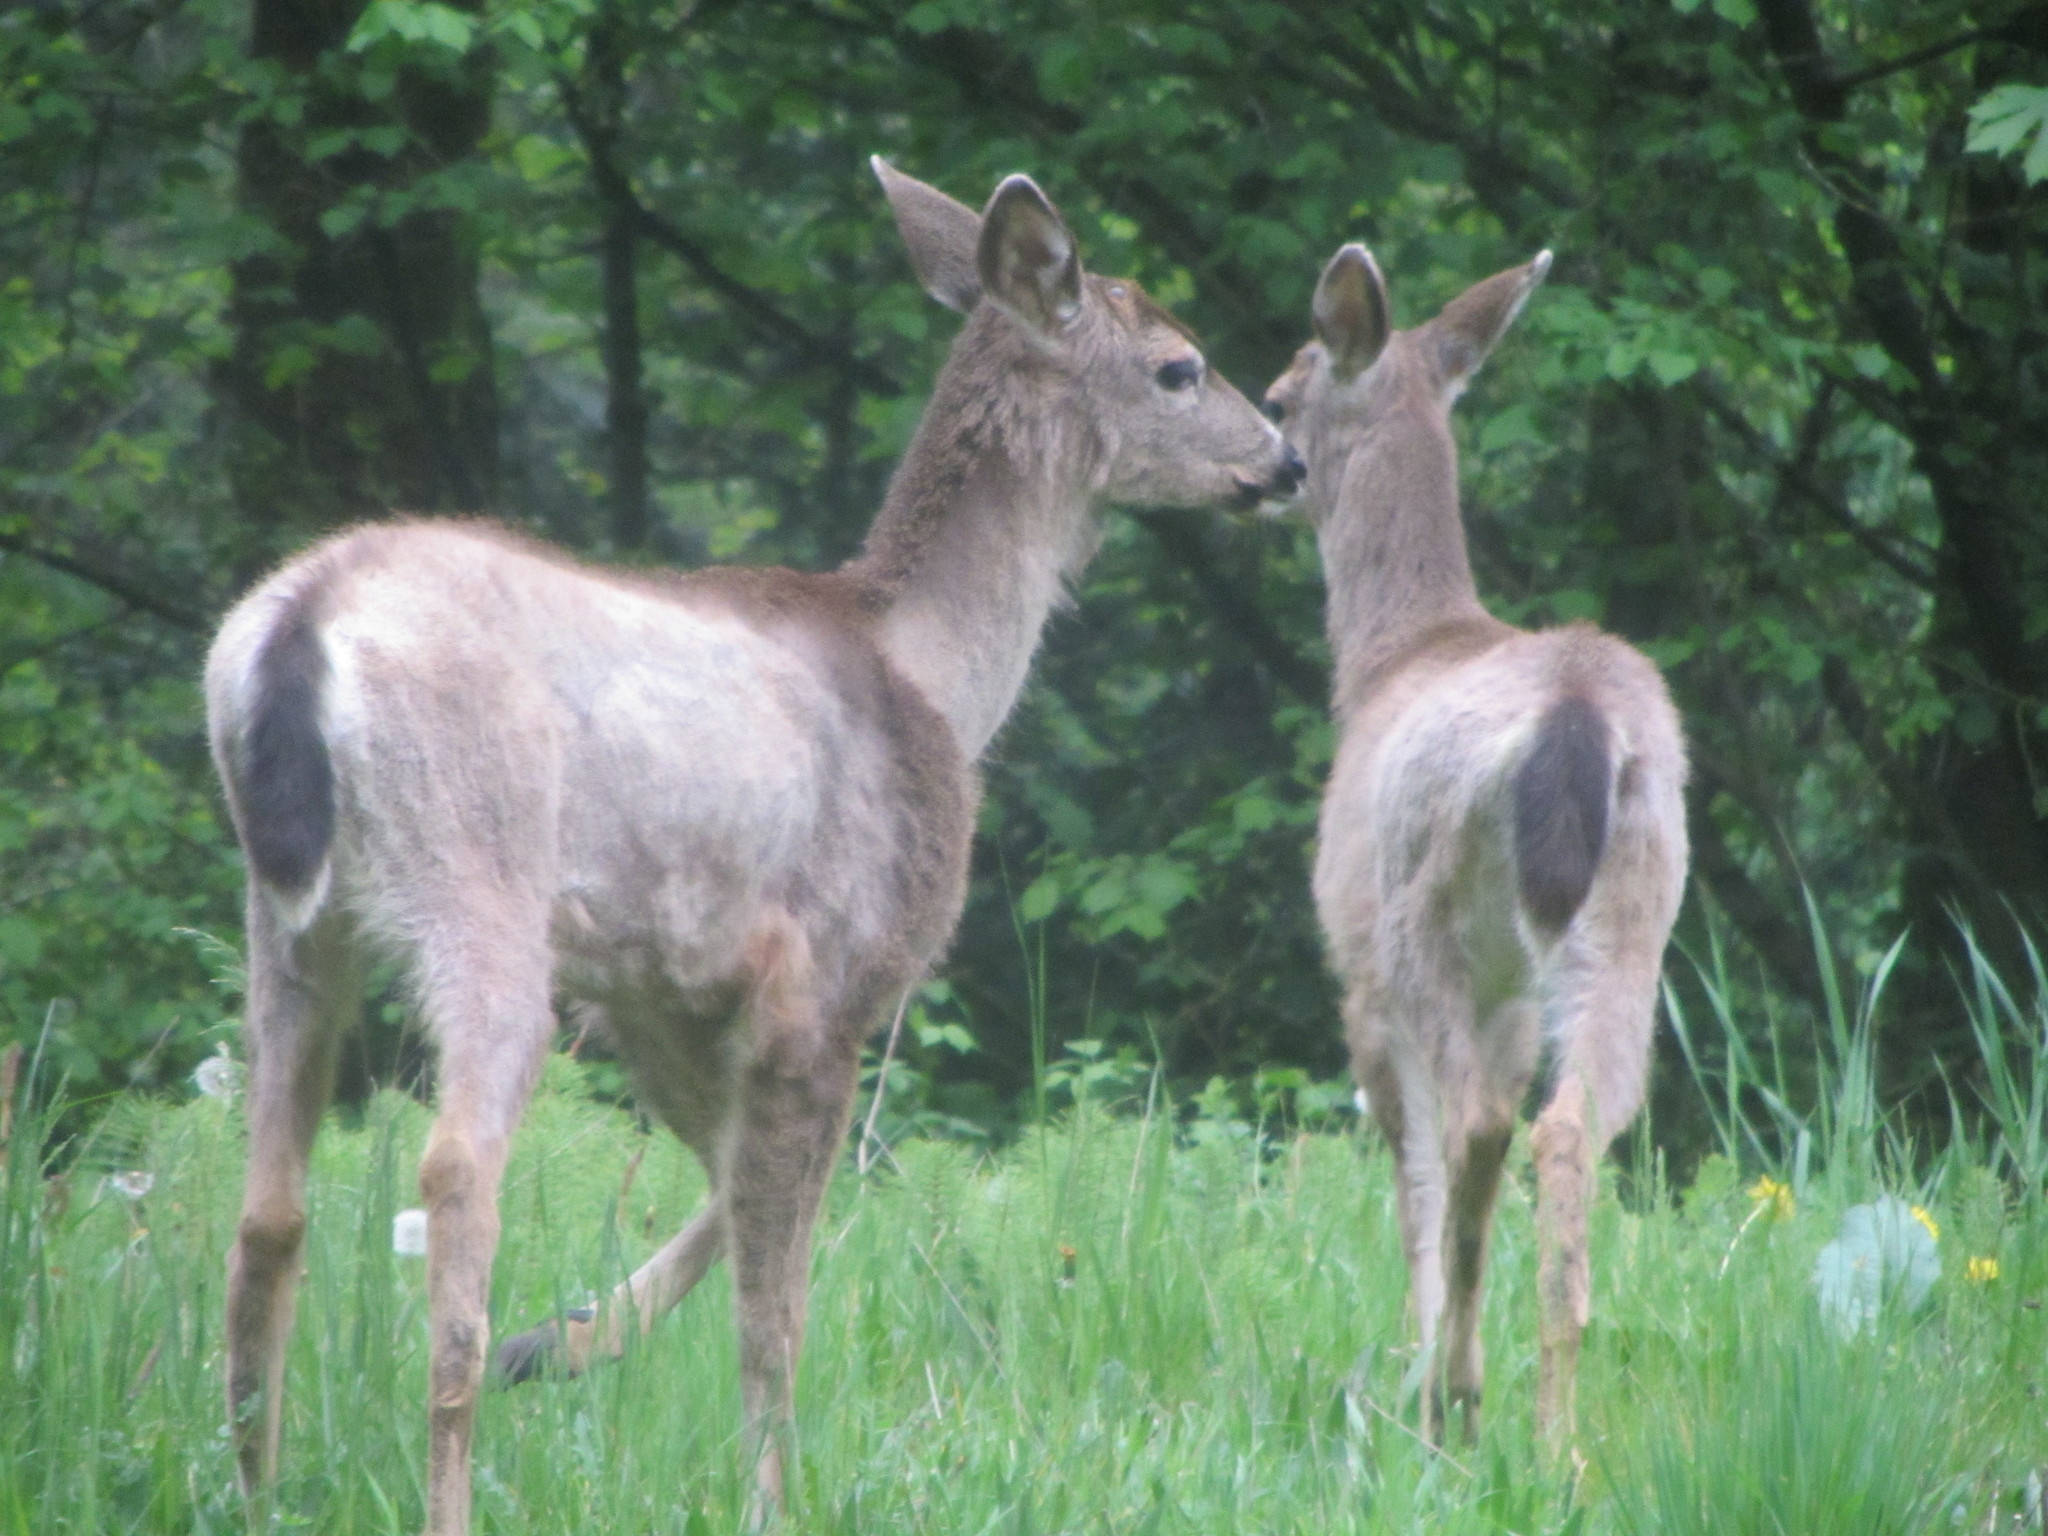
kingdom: Animalia
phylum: Chordata
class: Mammalia
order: Artiodactyla
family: Cervidae
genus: Odocoileus
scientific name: Odocoileus hemionus
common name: Mule deer
